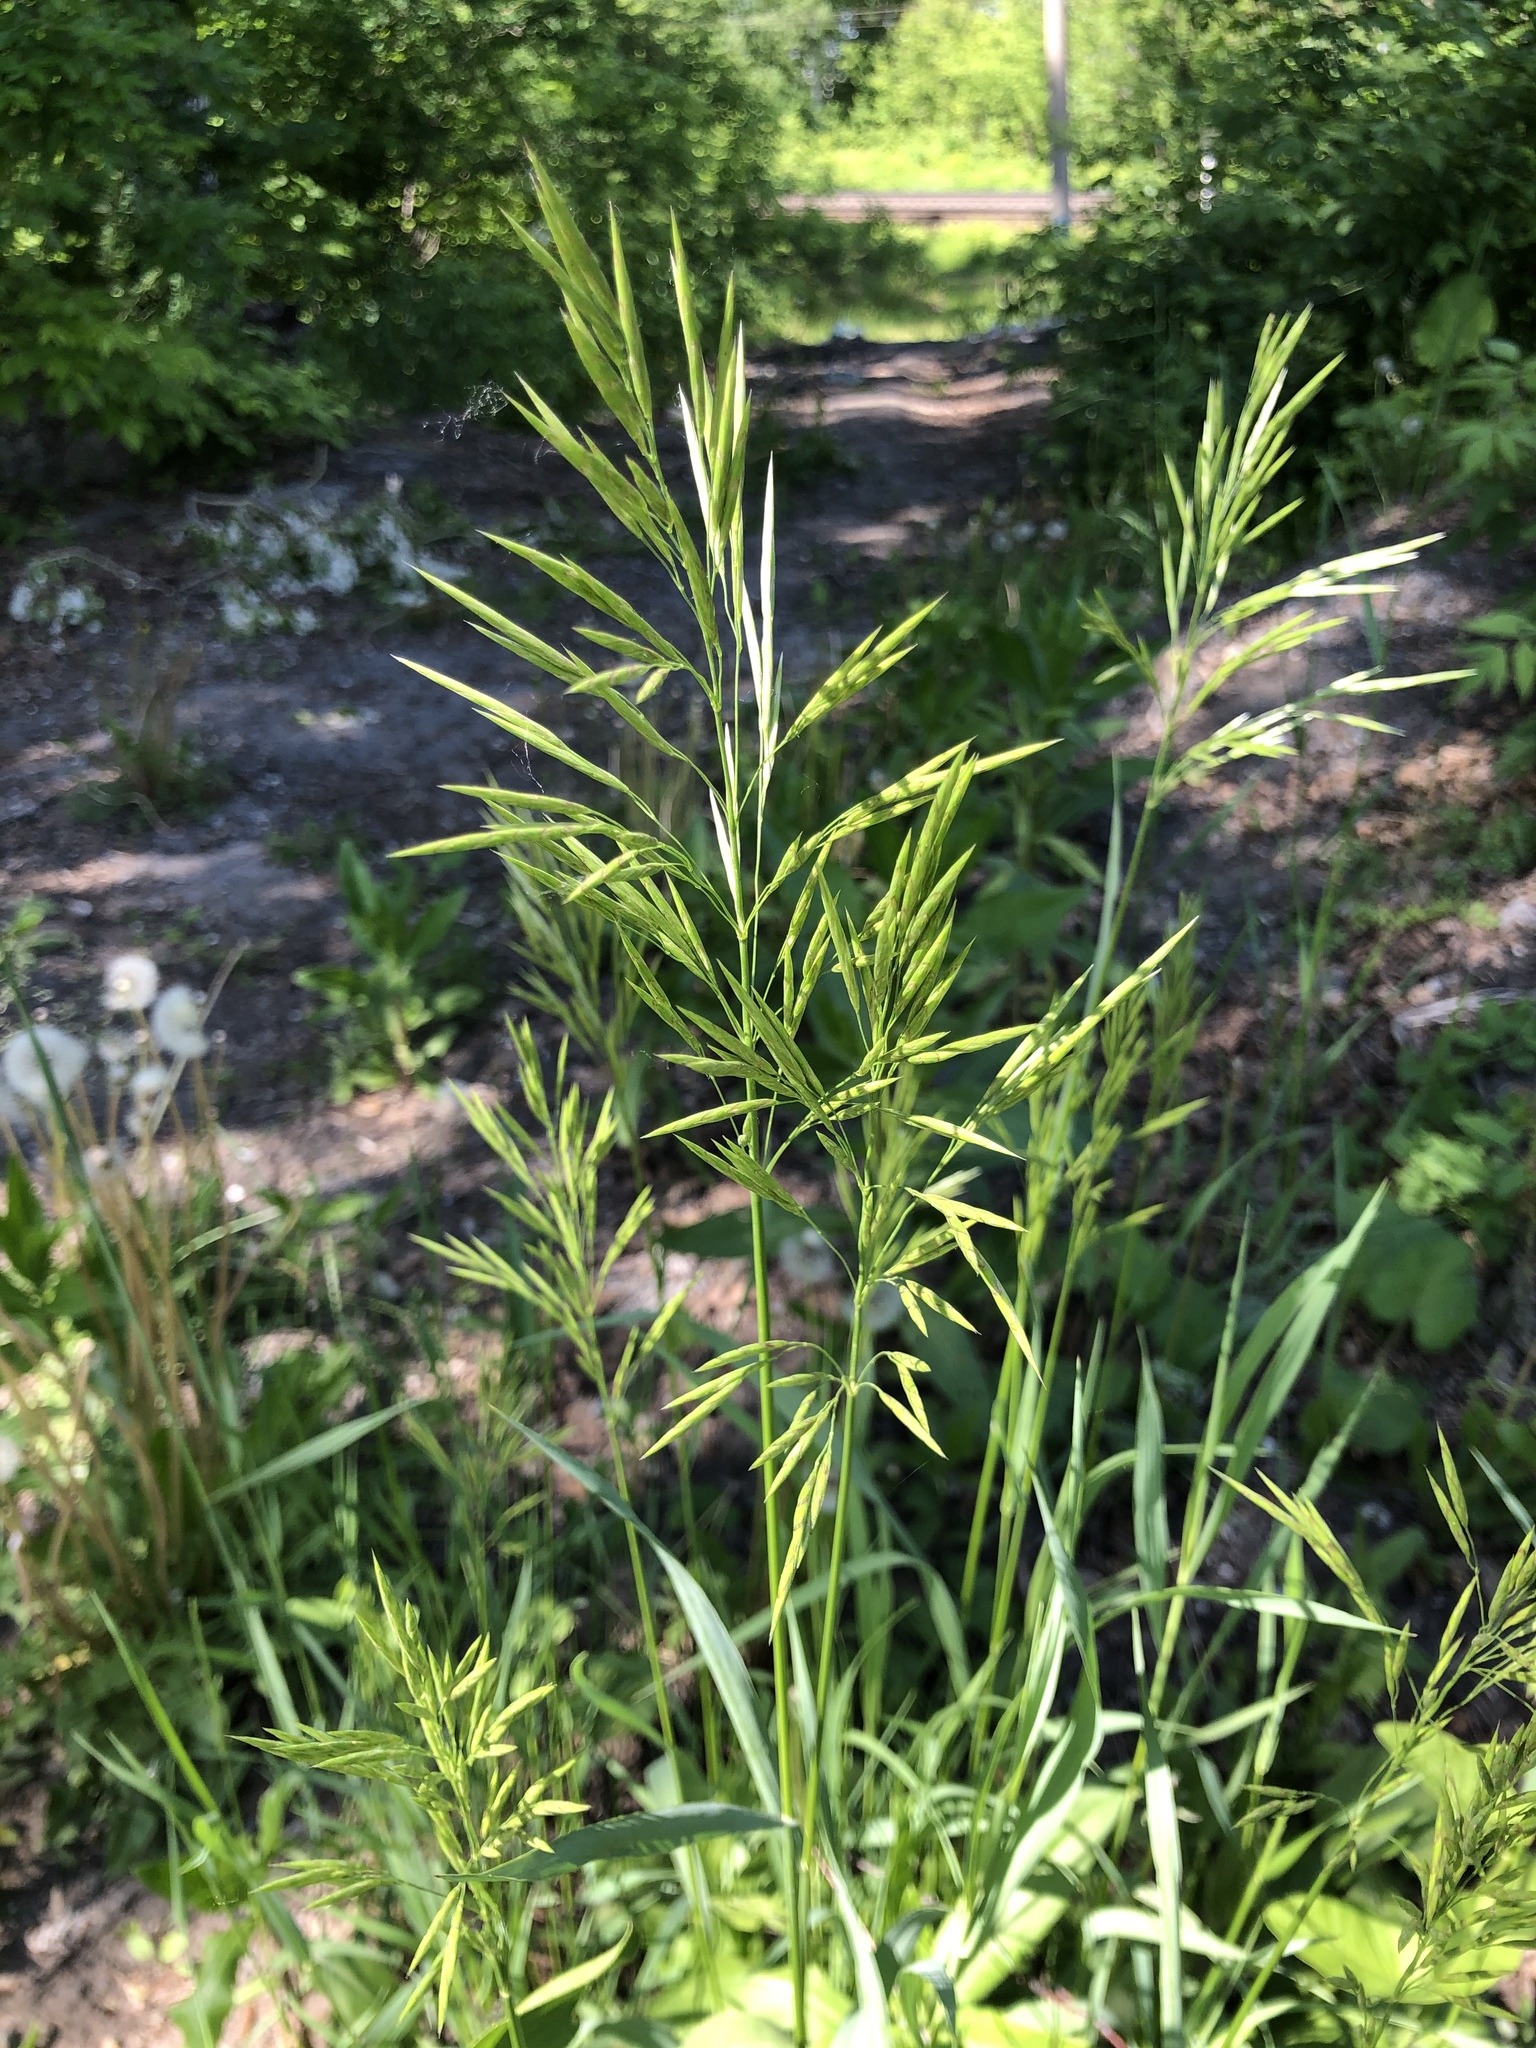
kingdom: Plantae
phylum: Tracheophyta
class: Liliopsida
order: Poales
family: Poaceae
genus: Bromus
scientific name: Bromus inermis
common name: Smooth brome
